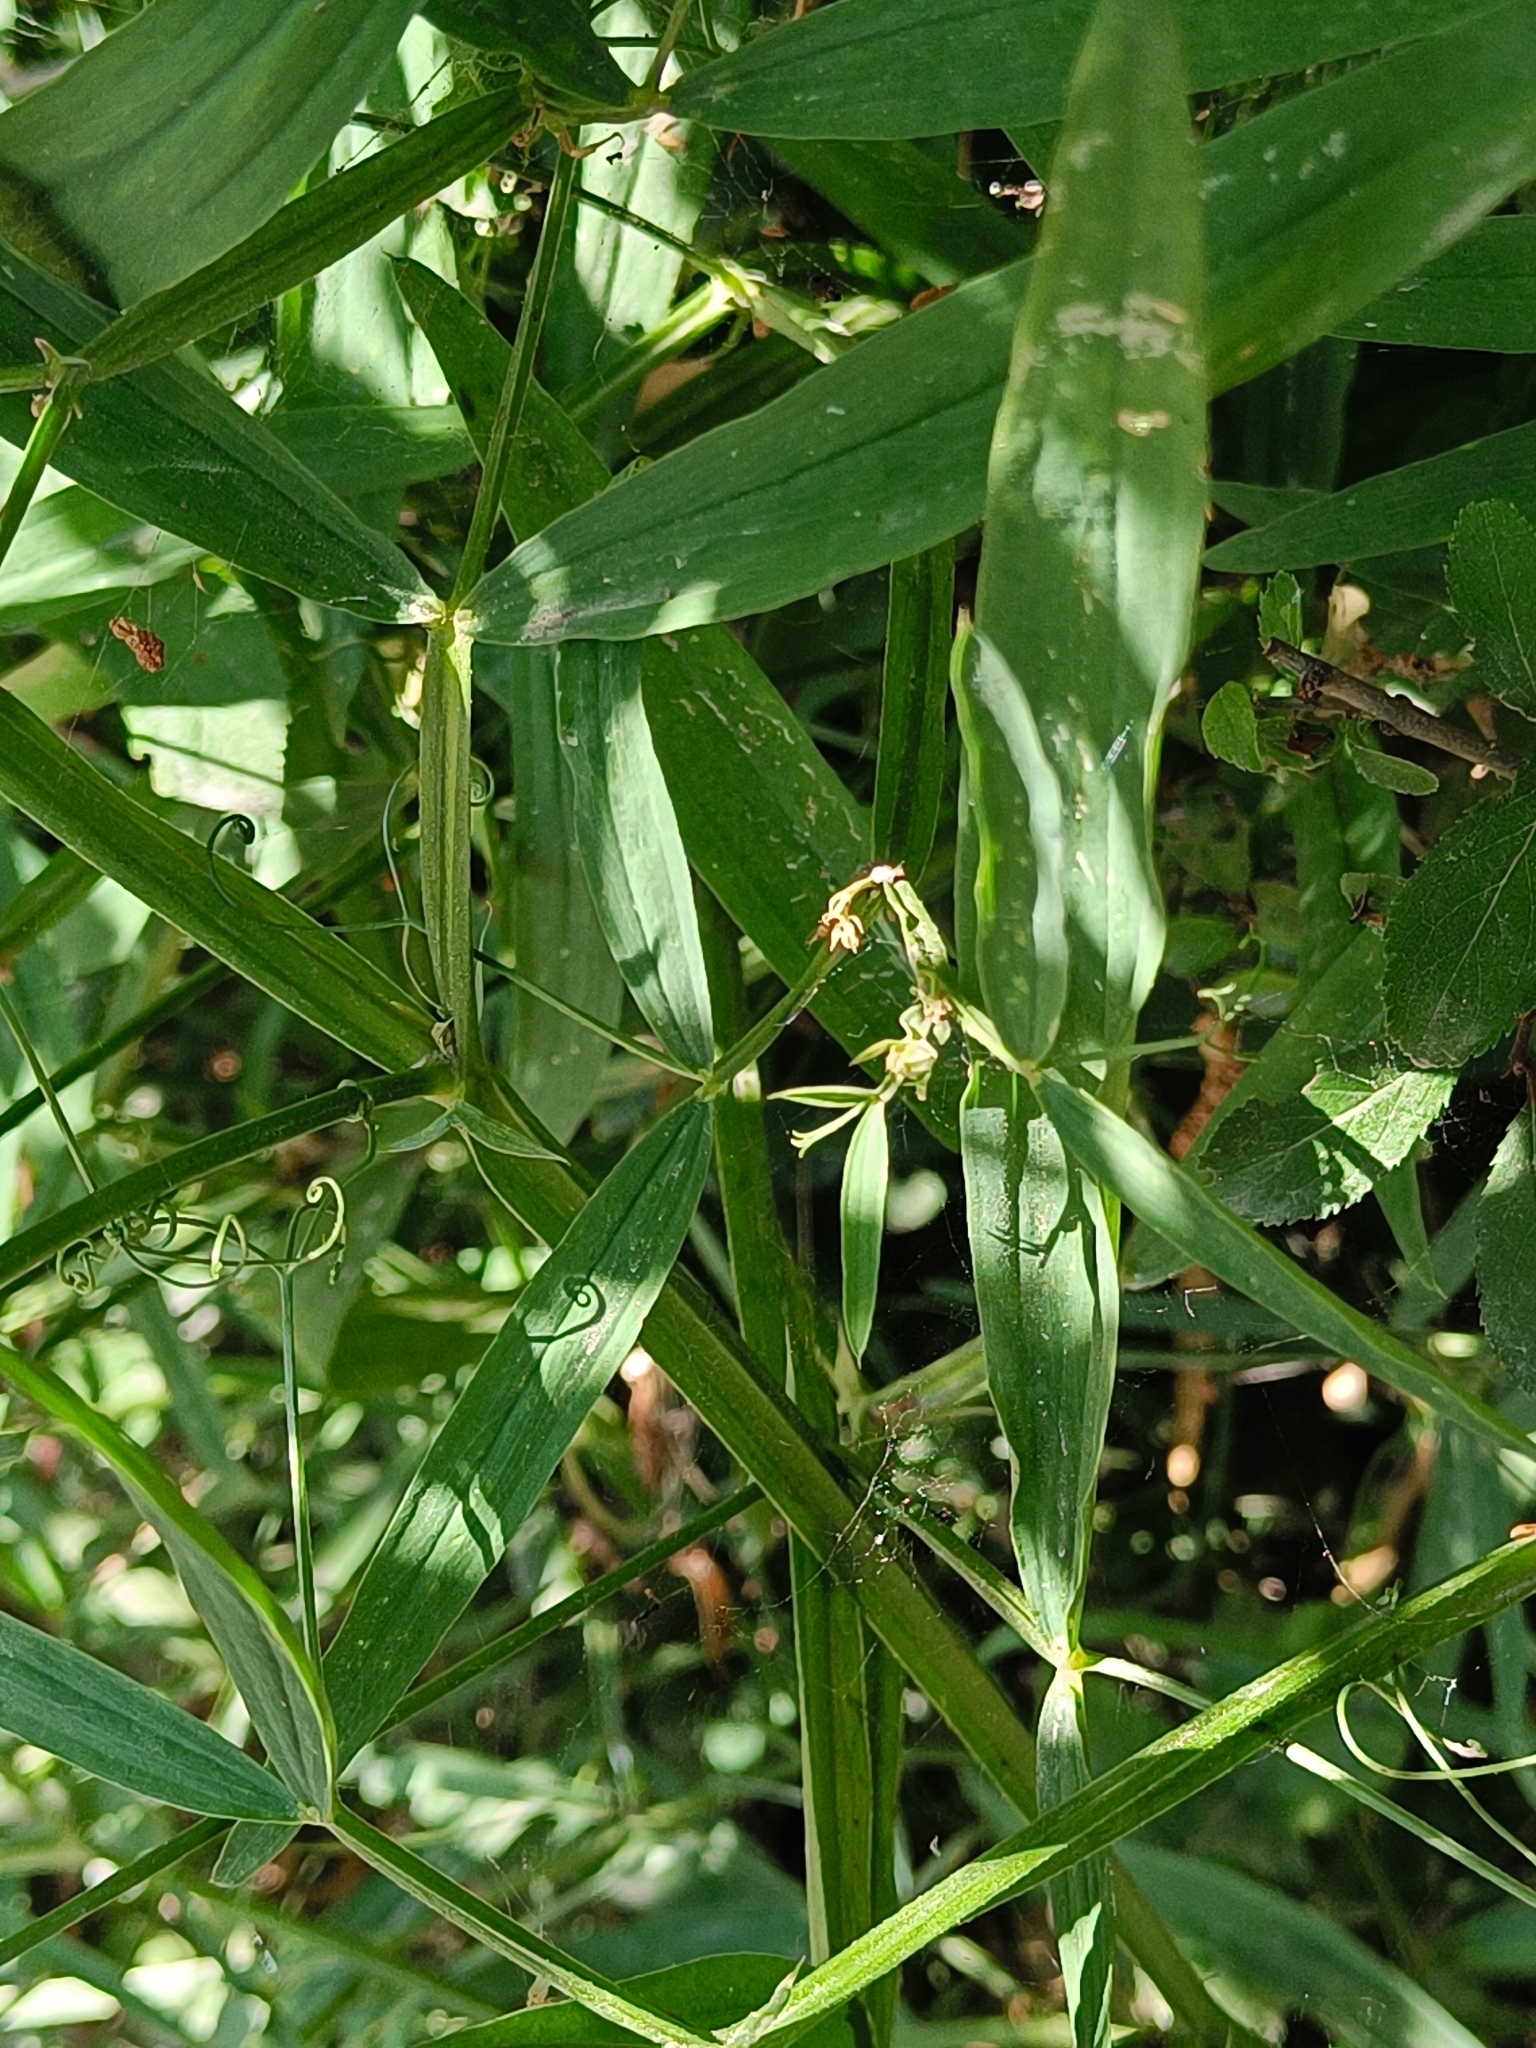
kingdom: Plantae
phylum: Tracheophyta
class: Magnoliopsida
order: Fabales
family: Fabaceae
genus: Lathyrus
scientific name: Lathyrus sylvestris
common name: Flat pea
